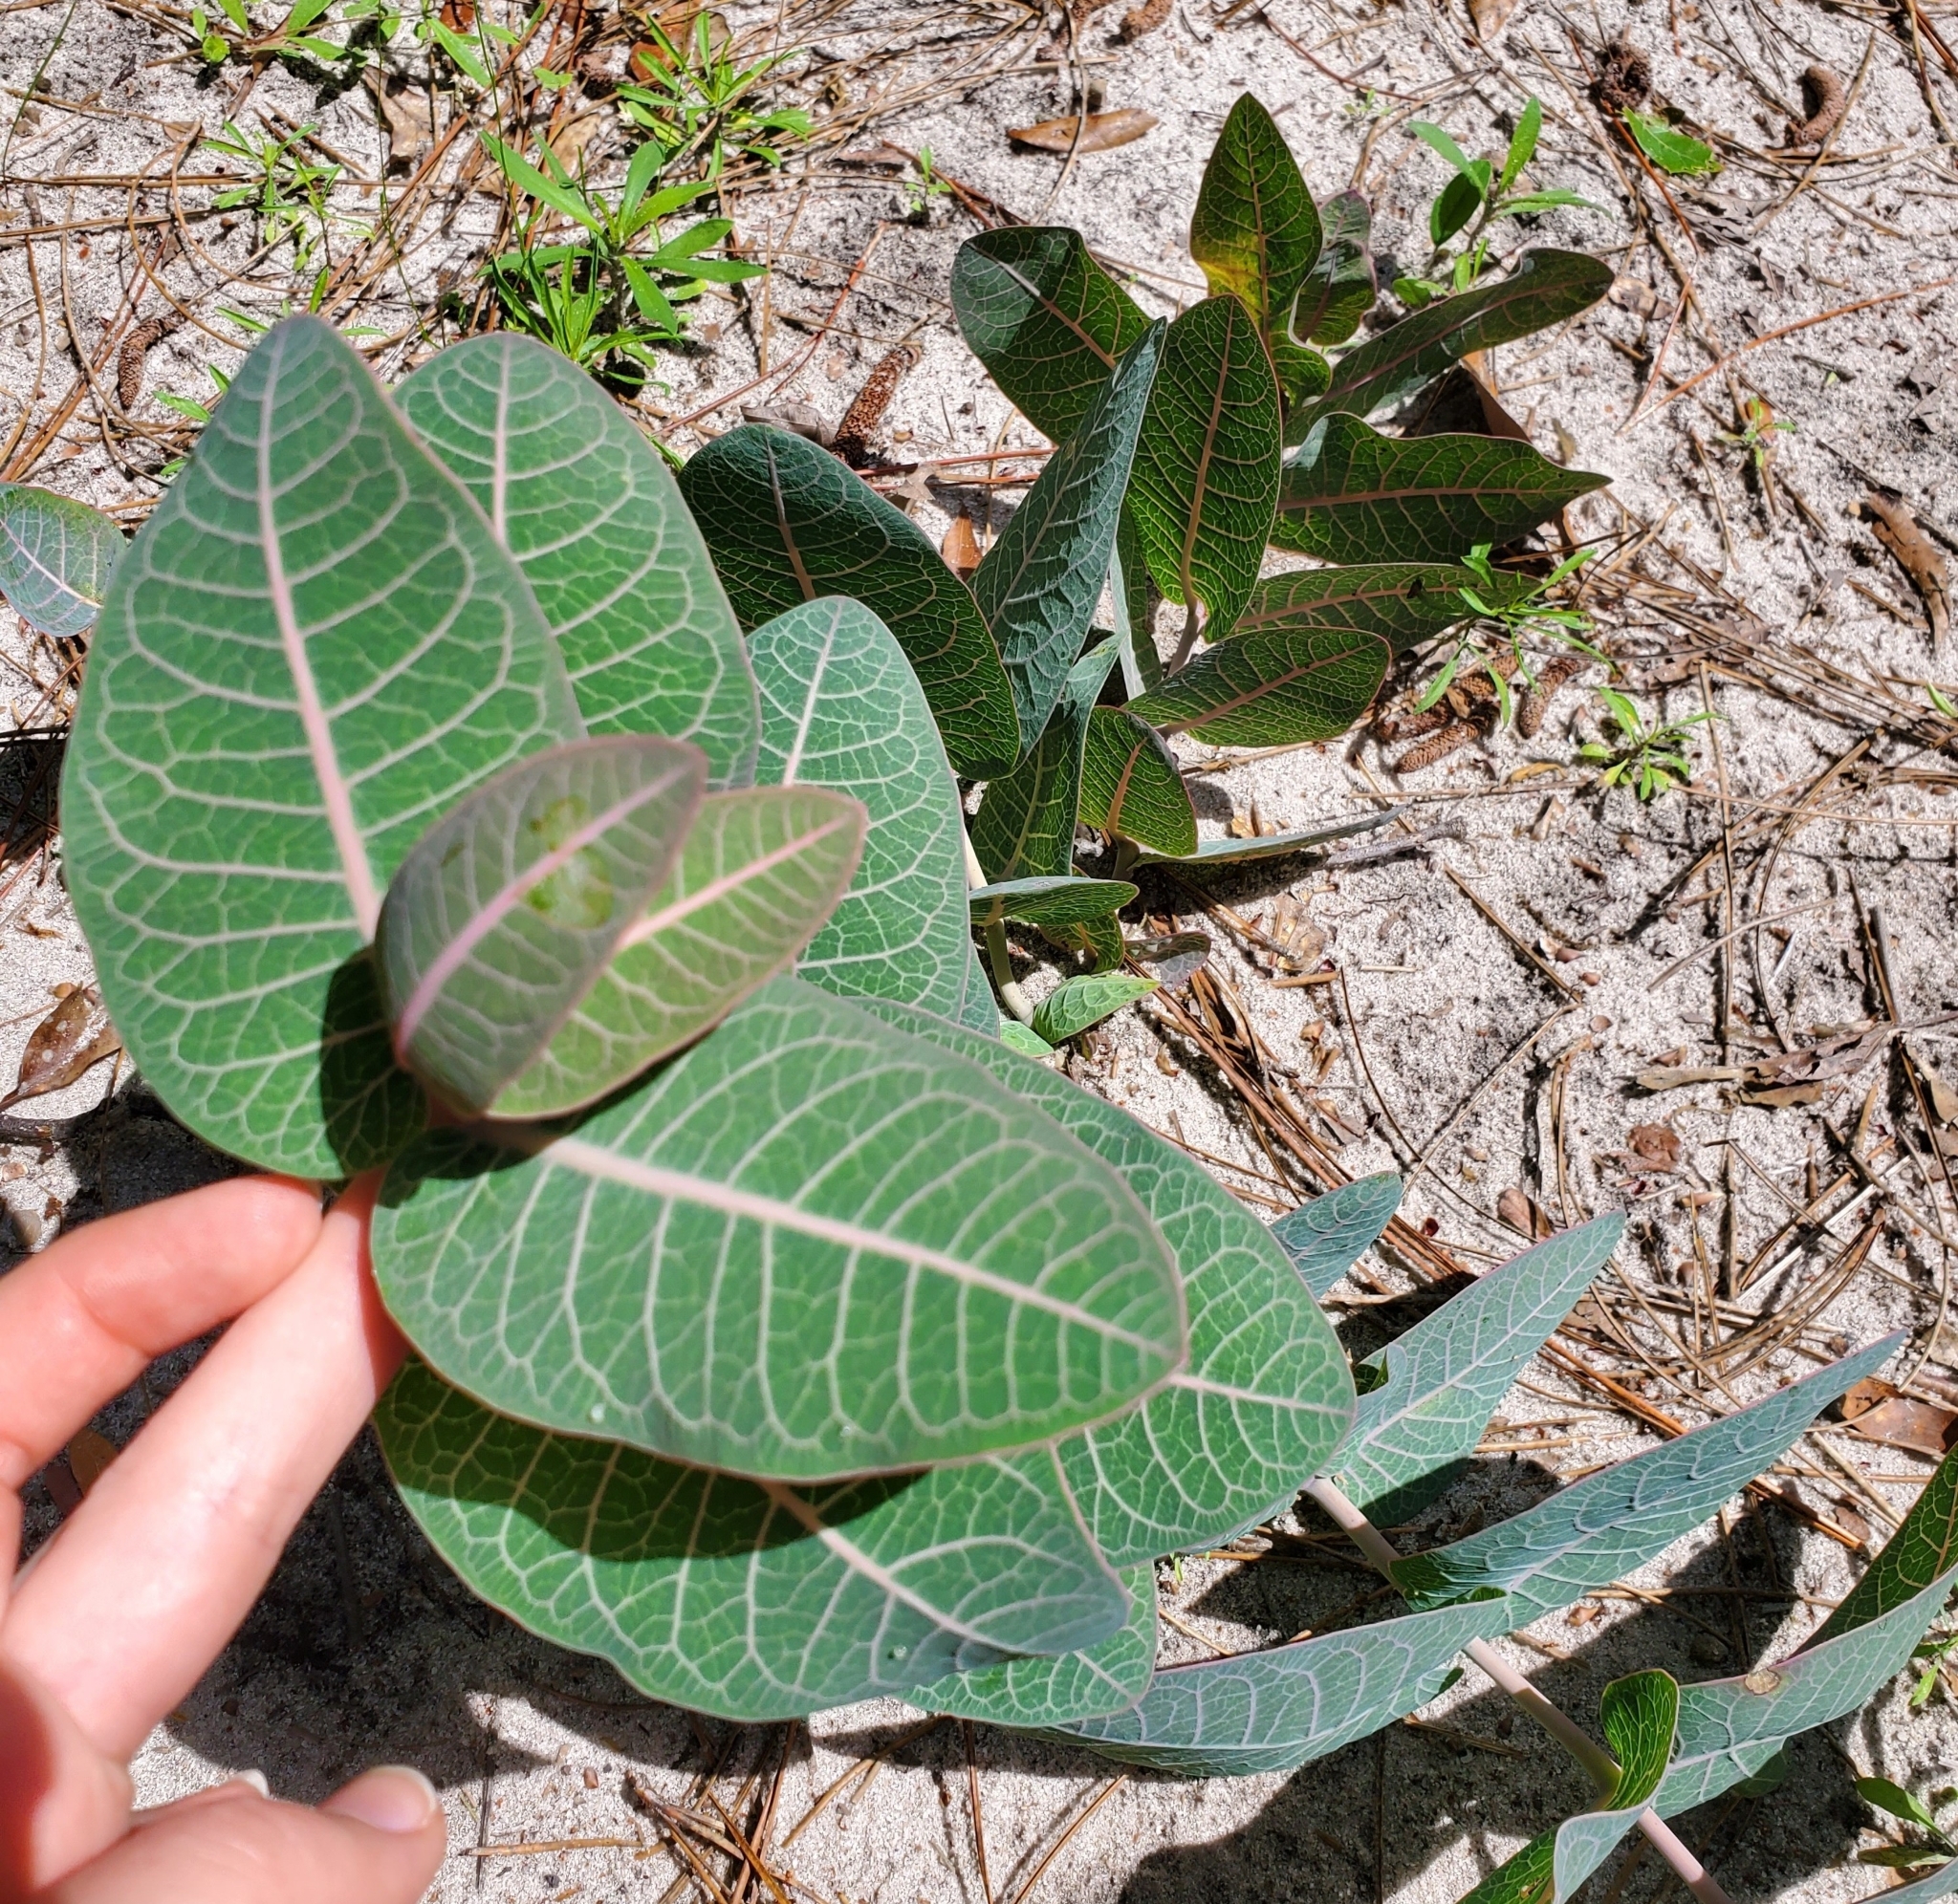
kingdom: Plantae
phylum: Tracheophyta
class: Magnoliopsida
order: Gentianales
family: Apocynaceae
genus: Asclepias
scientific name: Asclepias humistrata
